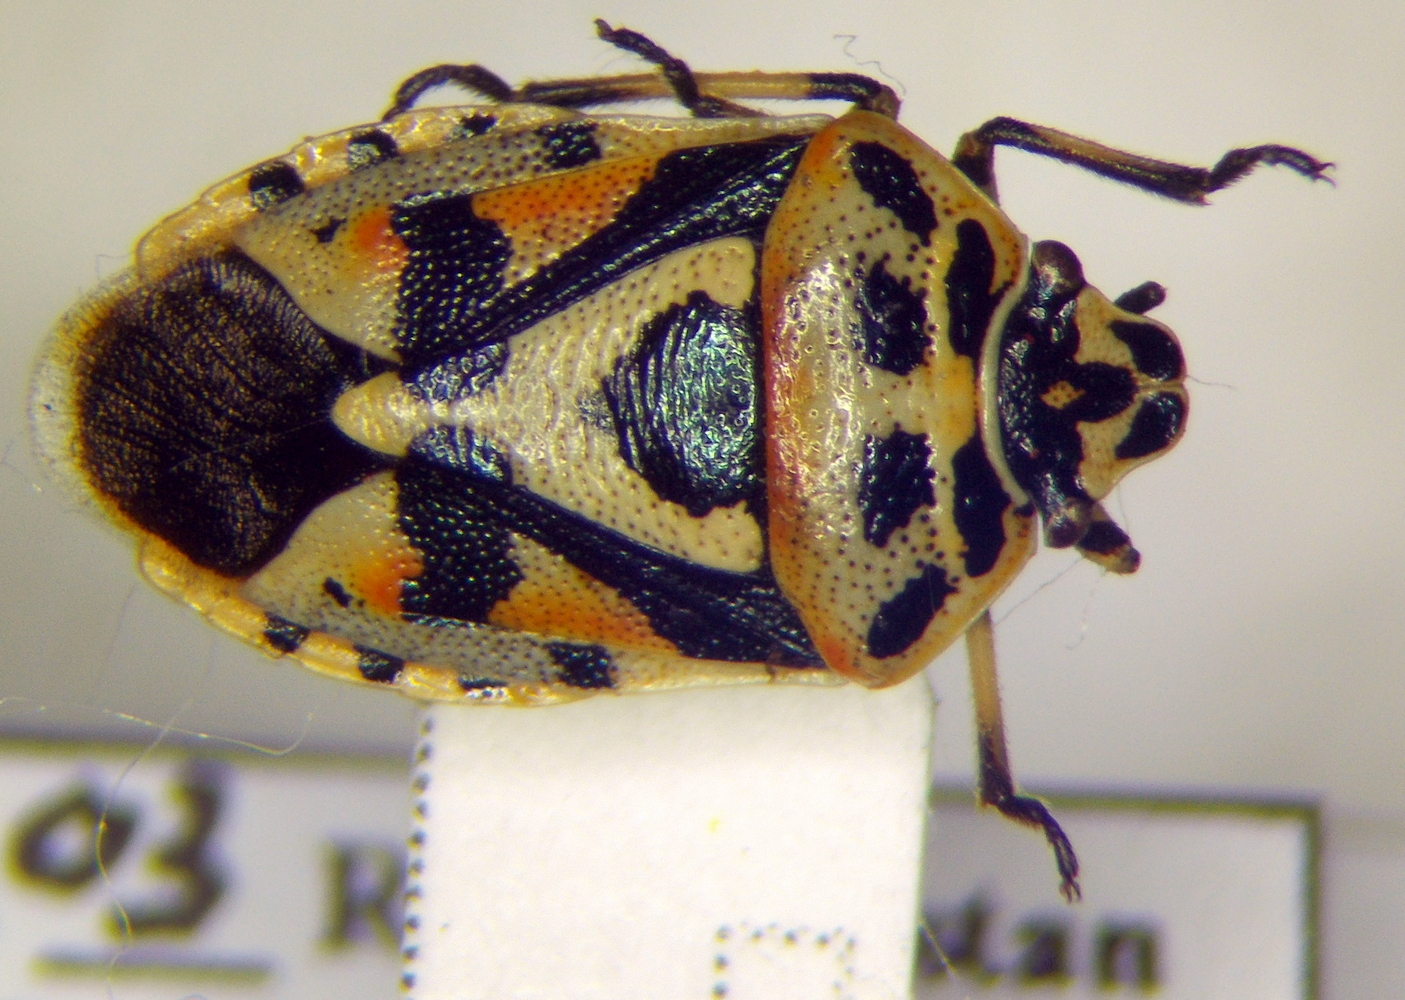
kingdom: Animalia
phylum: Arthropoda
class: Insecta
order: Hemiptera
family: Pentatomidae
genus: Eurydema
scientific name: Eurydema ornata
